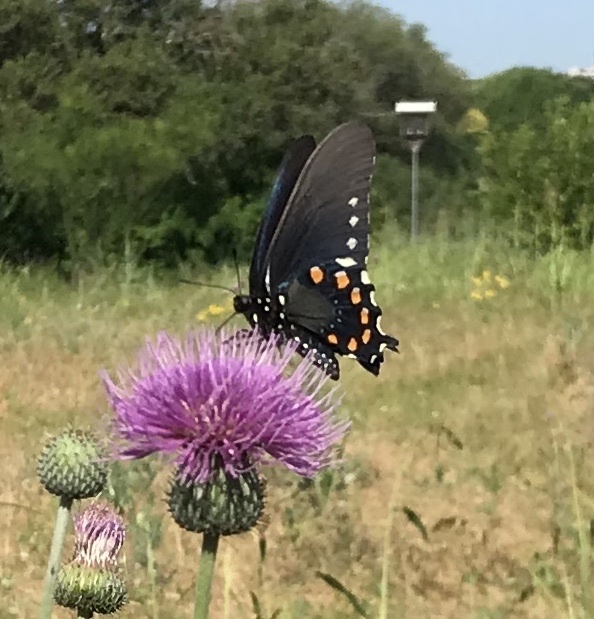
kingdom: Animalia
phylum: Arthropoda
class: Insecta
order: Lepidoptera
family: Papilionidae
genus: Battus
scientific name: Battus philenor
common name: Pipevine swallowtail
